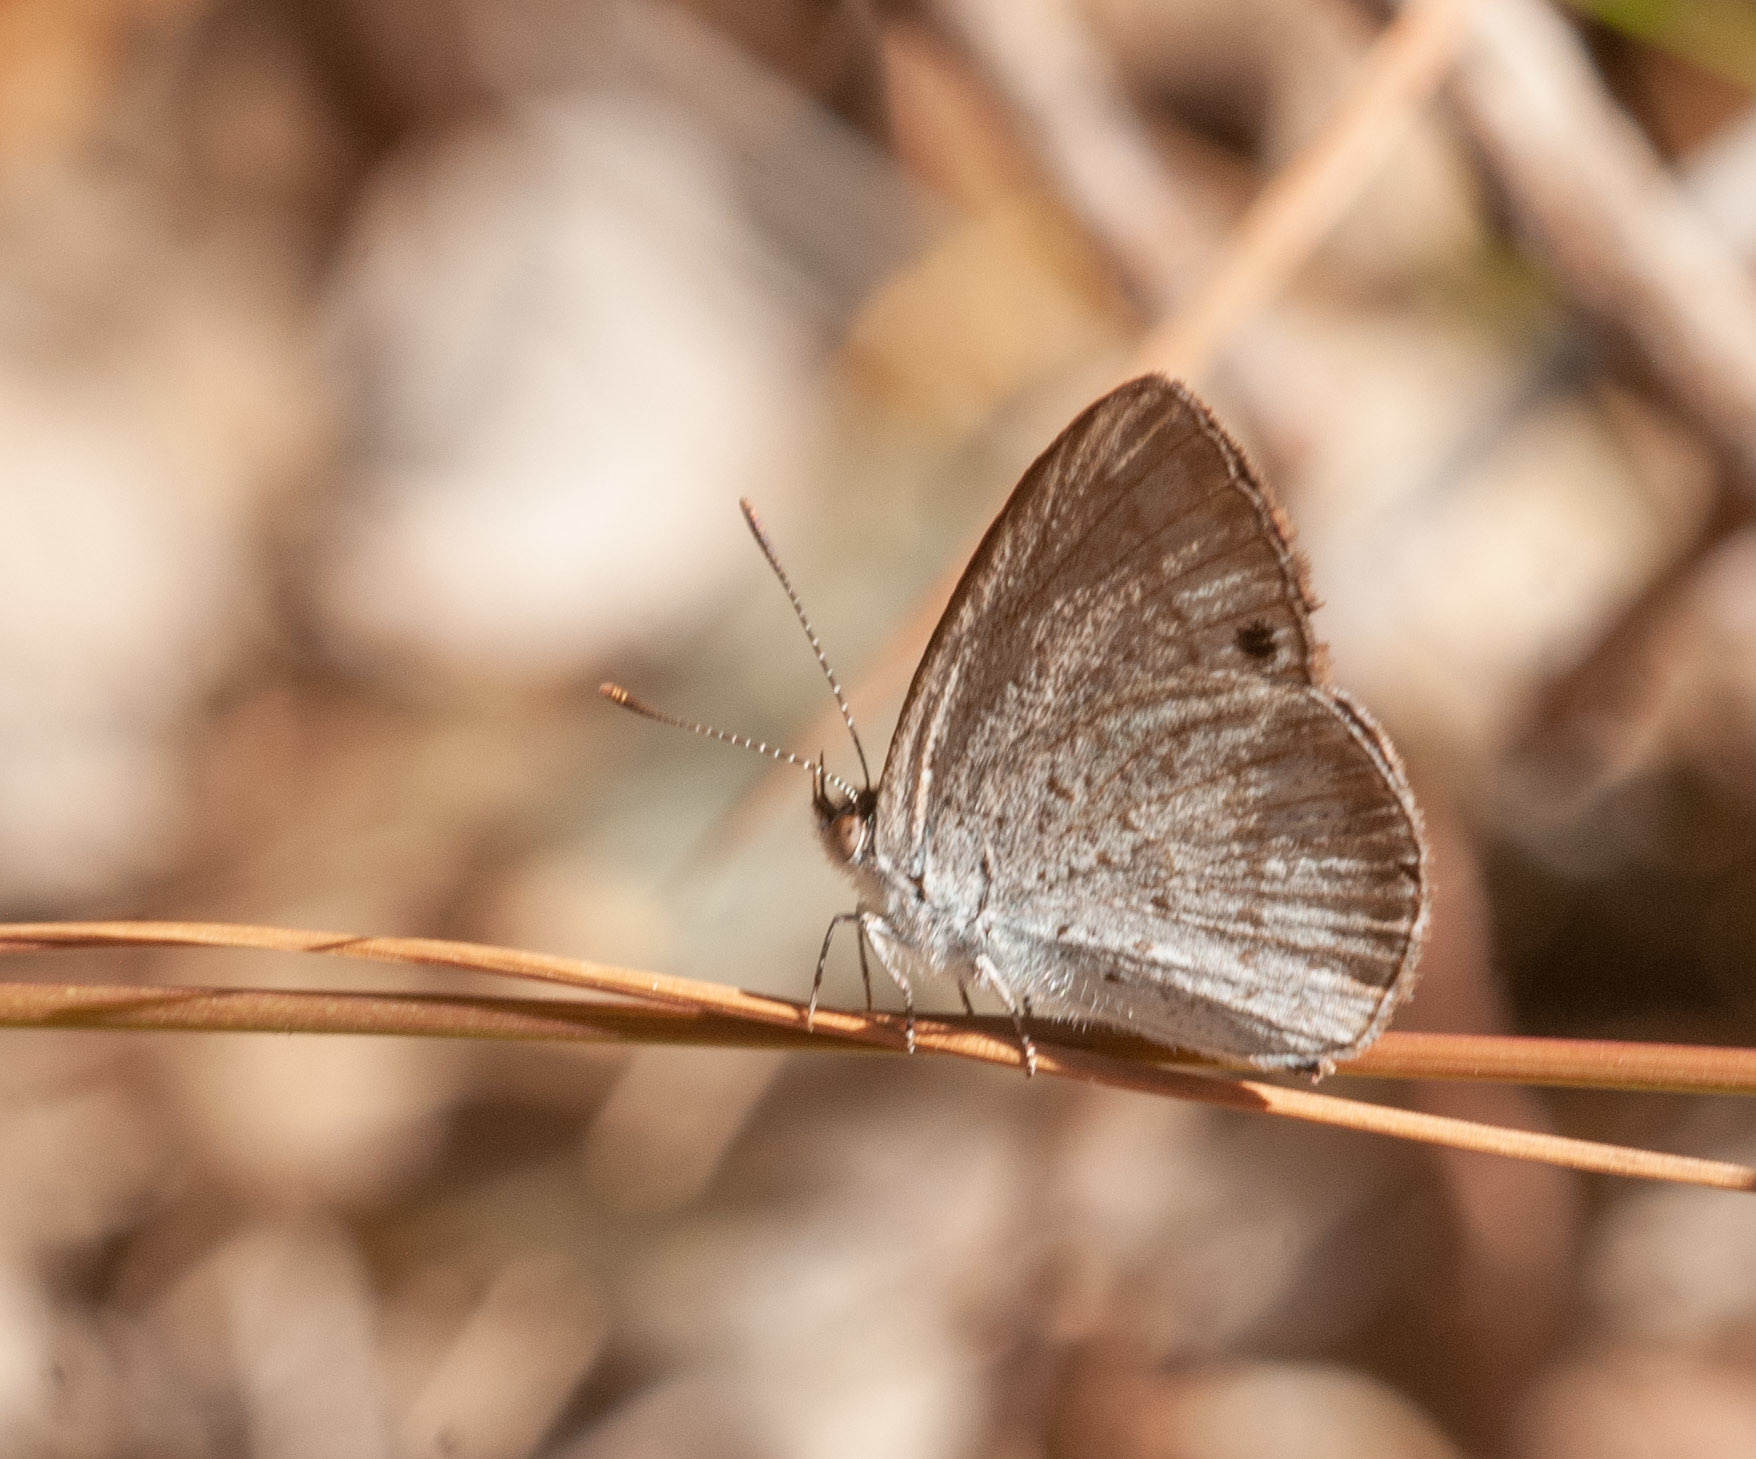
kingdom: Animalia
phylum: Arthropoda
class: Insecta
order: Lepidoptera
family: Lycaenidae
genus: Candalides
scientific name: Candalides
